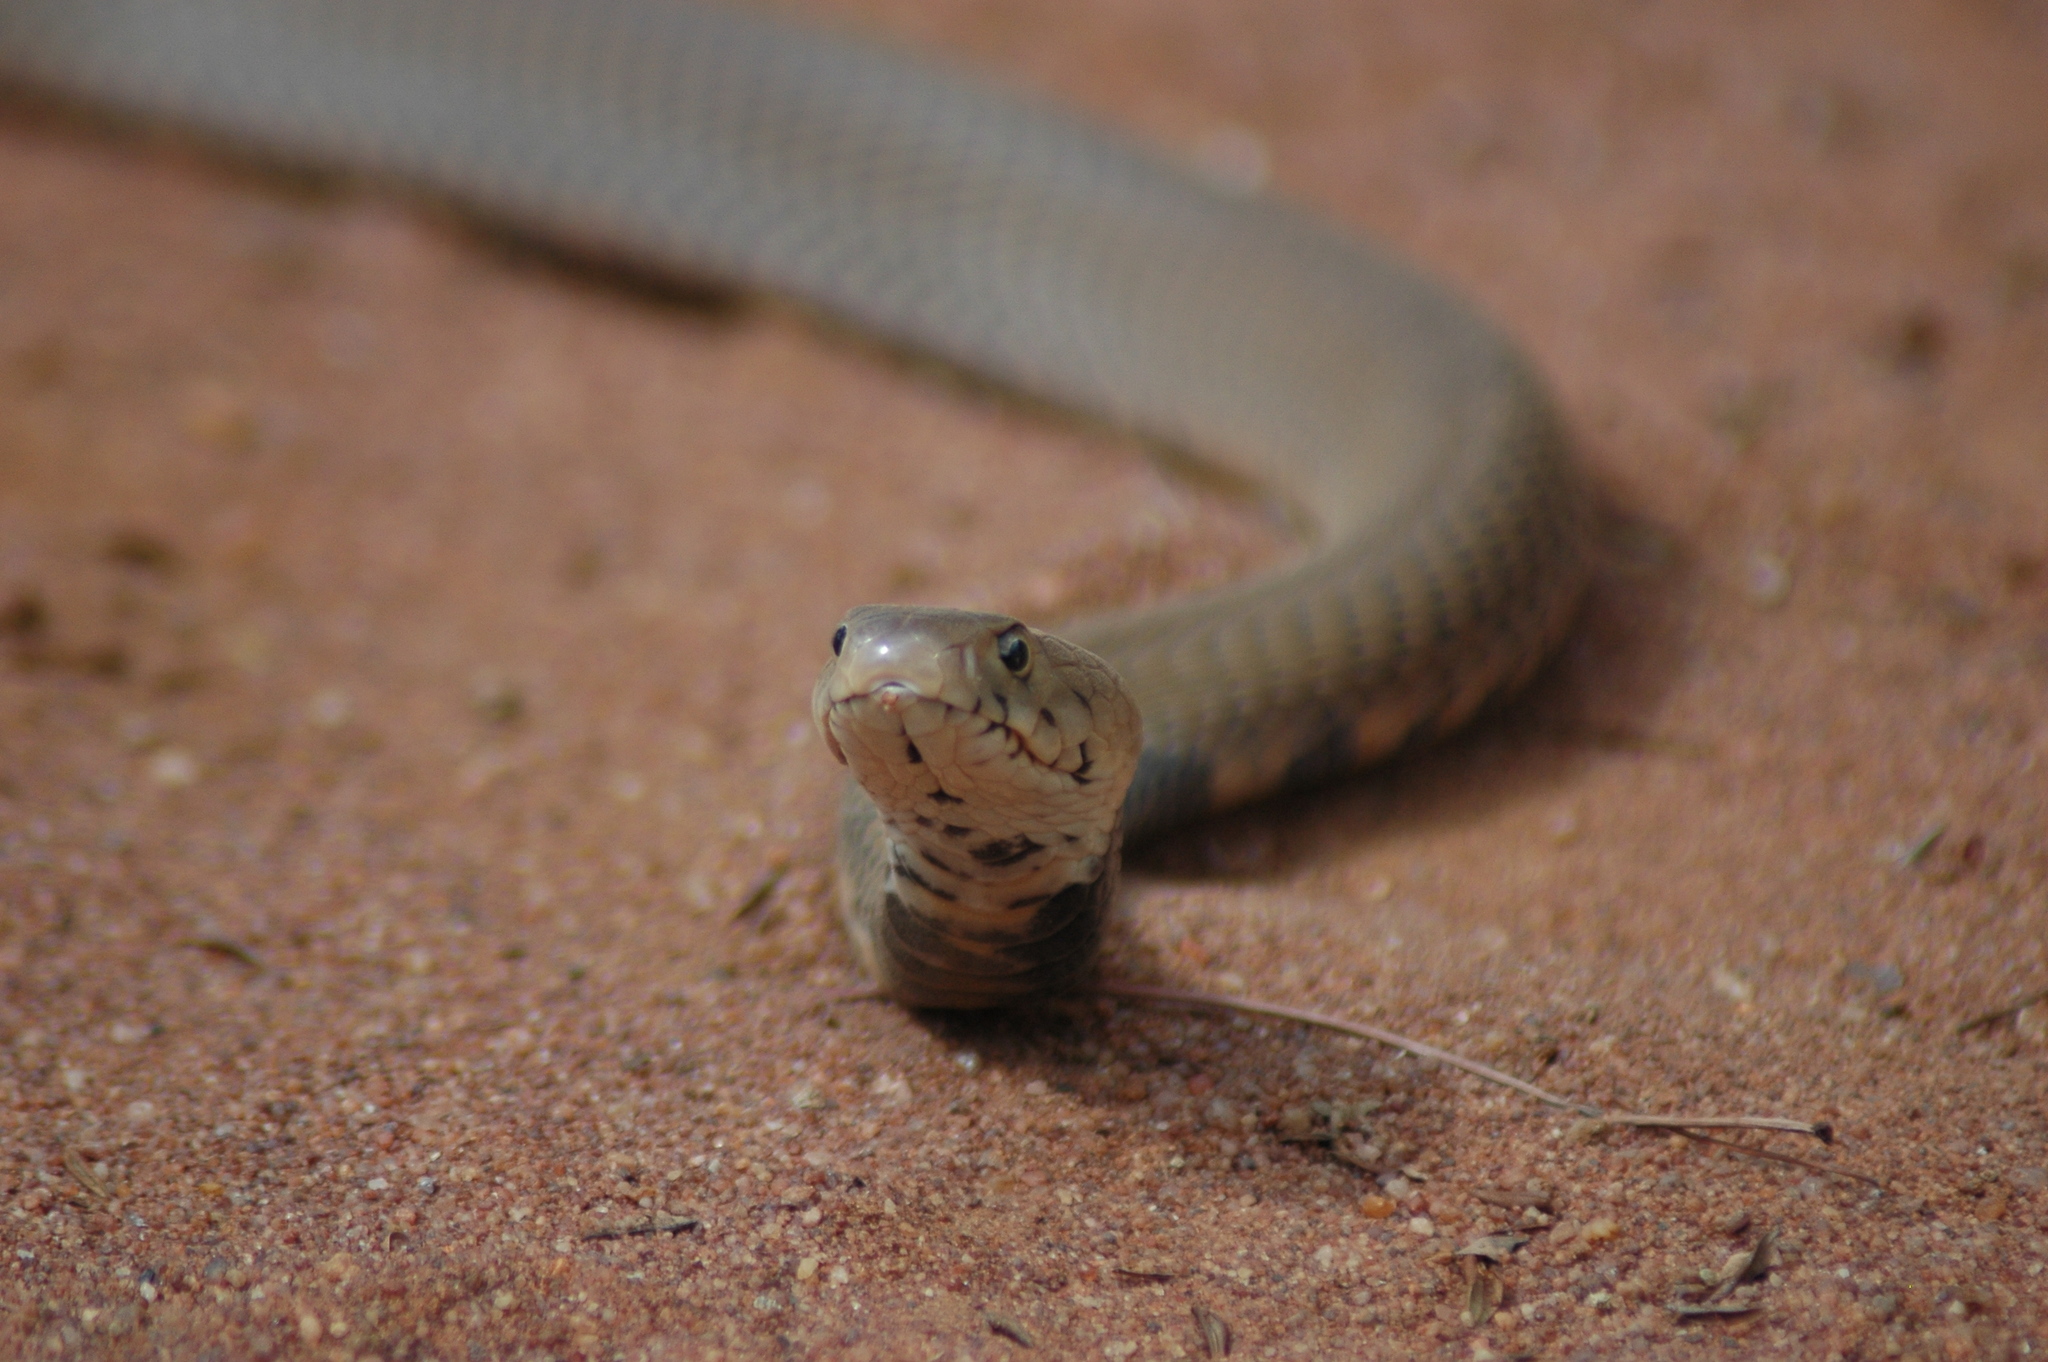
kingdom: Animalia
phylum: Chordata
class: Squamata
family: Elapidae
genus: Naja
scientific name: Naja mossambica
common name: Mozambique spitting cobra
